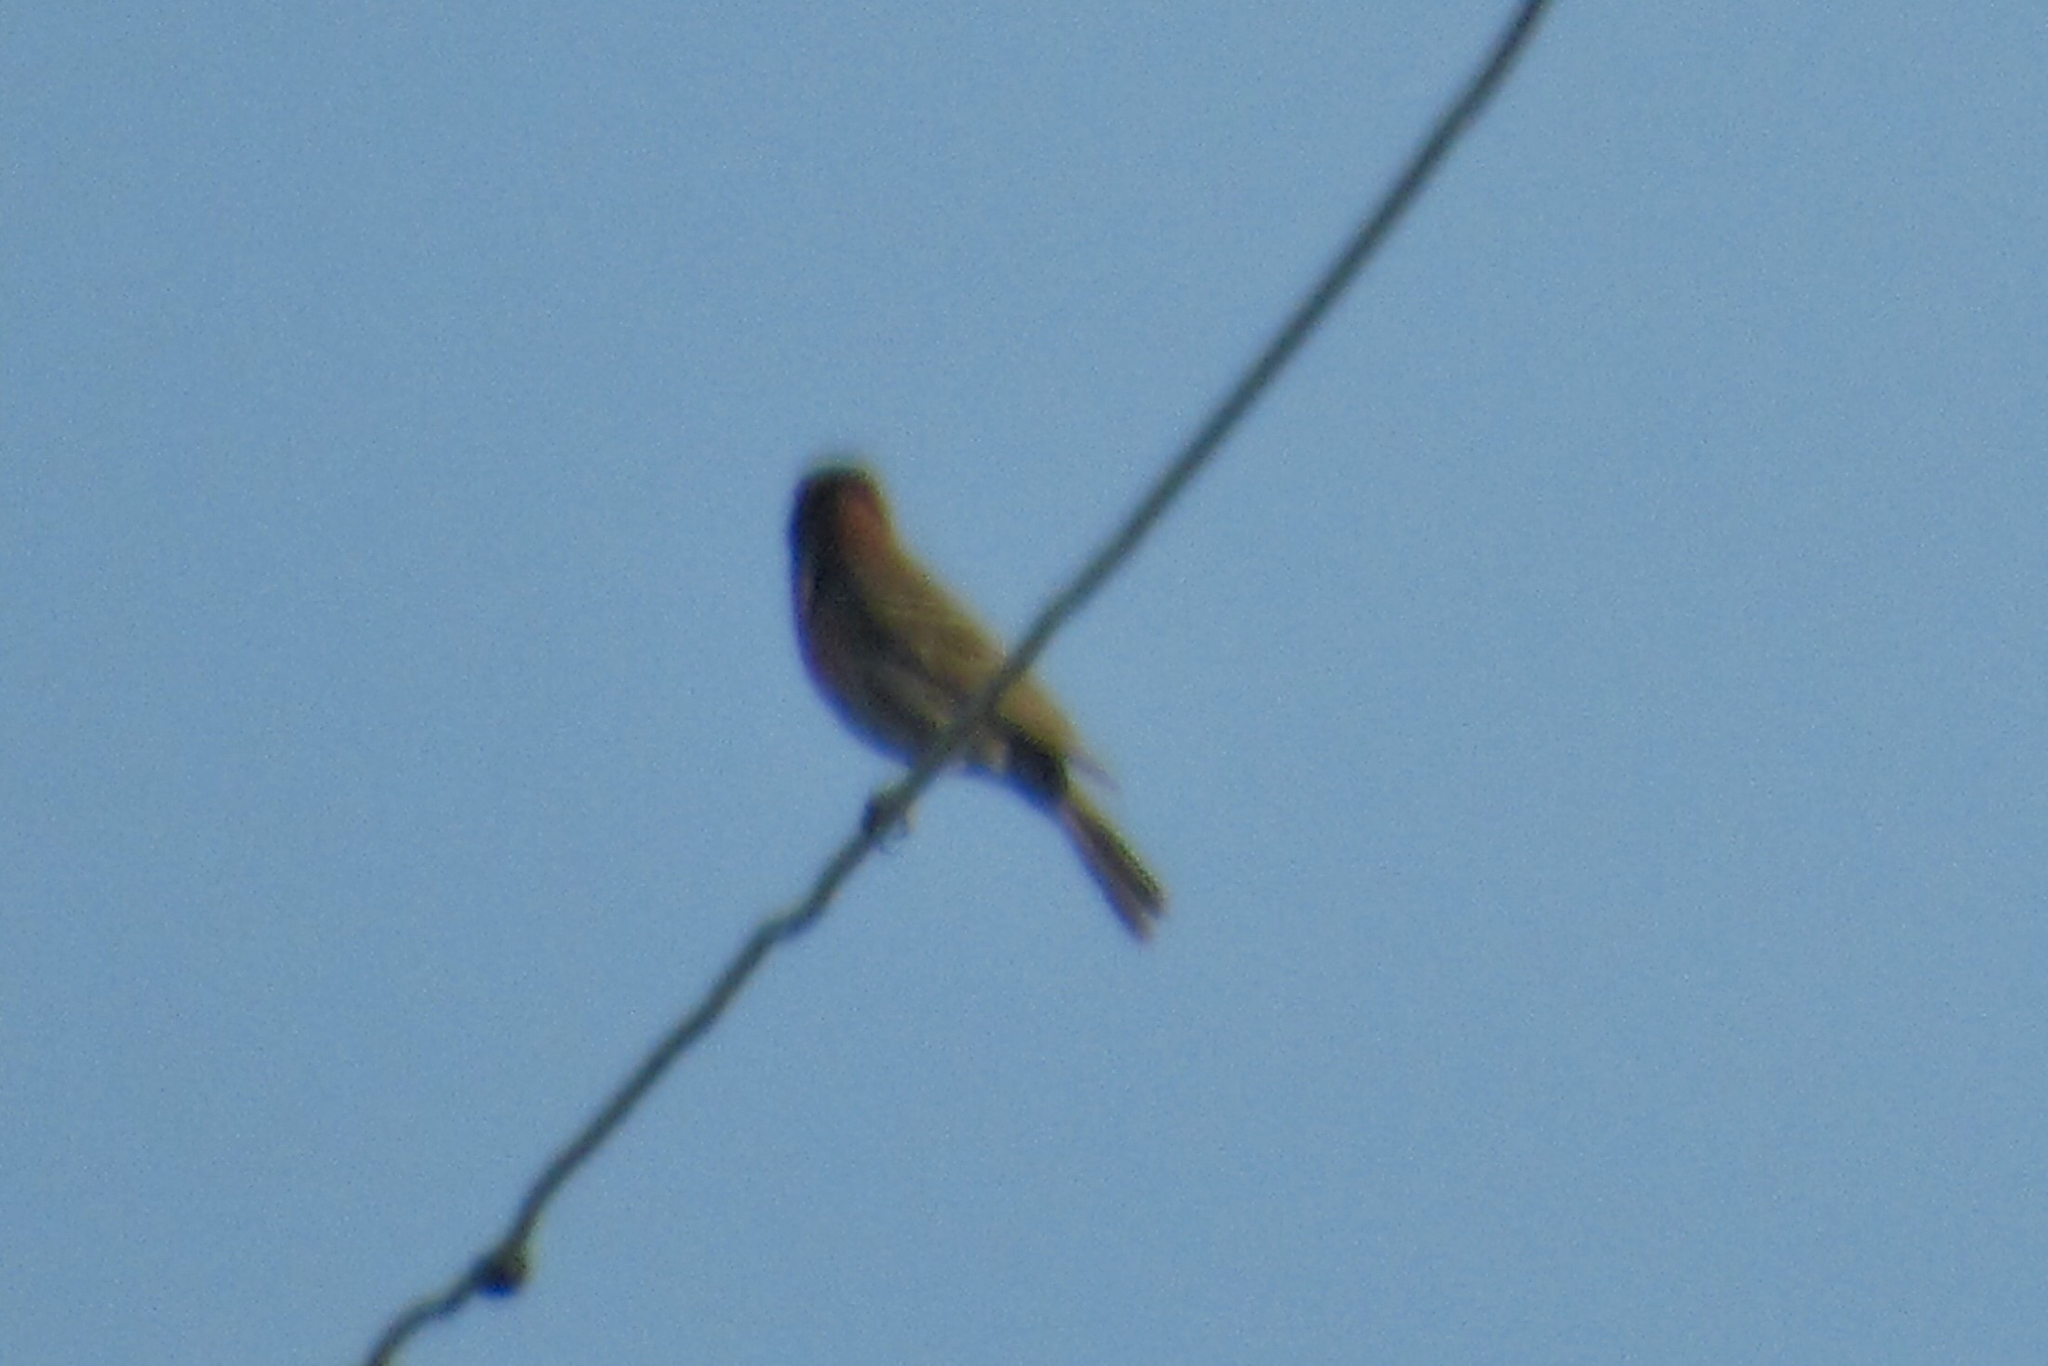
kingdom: Animalia
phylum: Chordata
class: Aves
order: Passeriformes
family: Fringillidae
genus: Haemorhous
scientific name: Haemorhous mexicanus
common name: House finch
